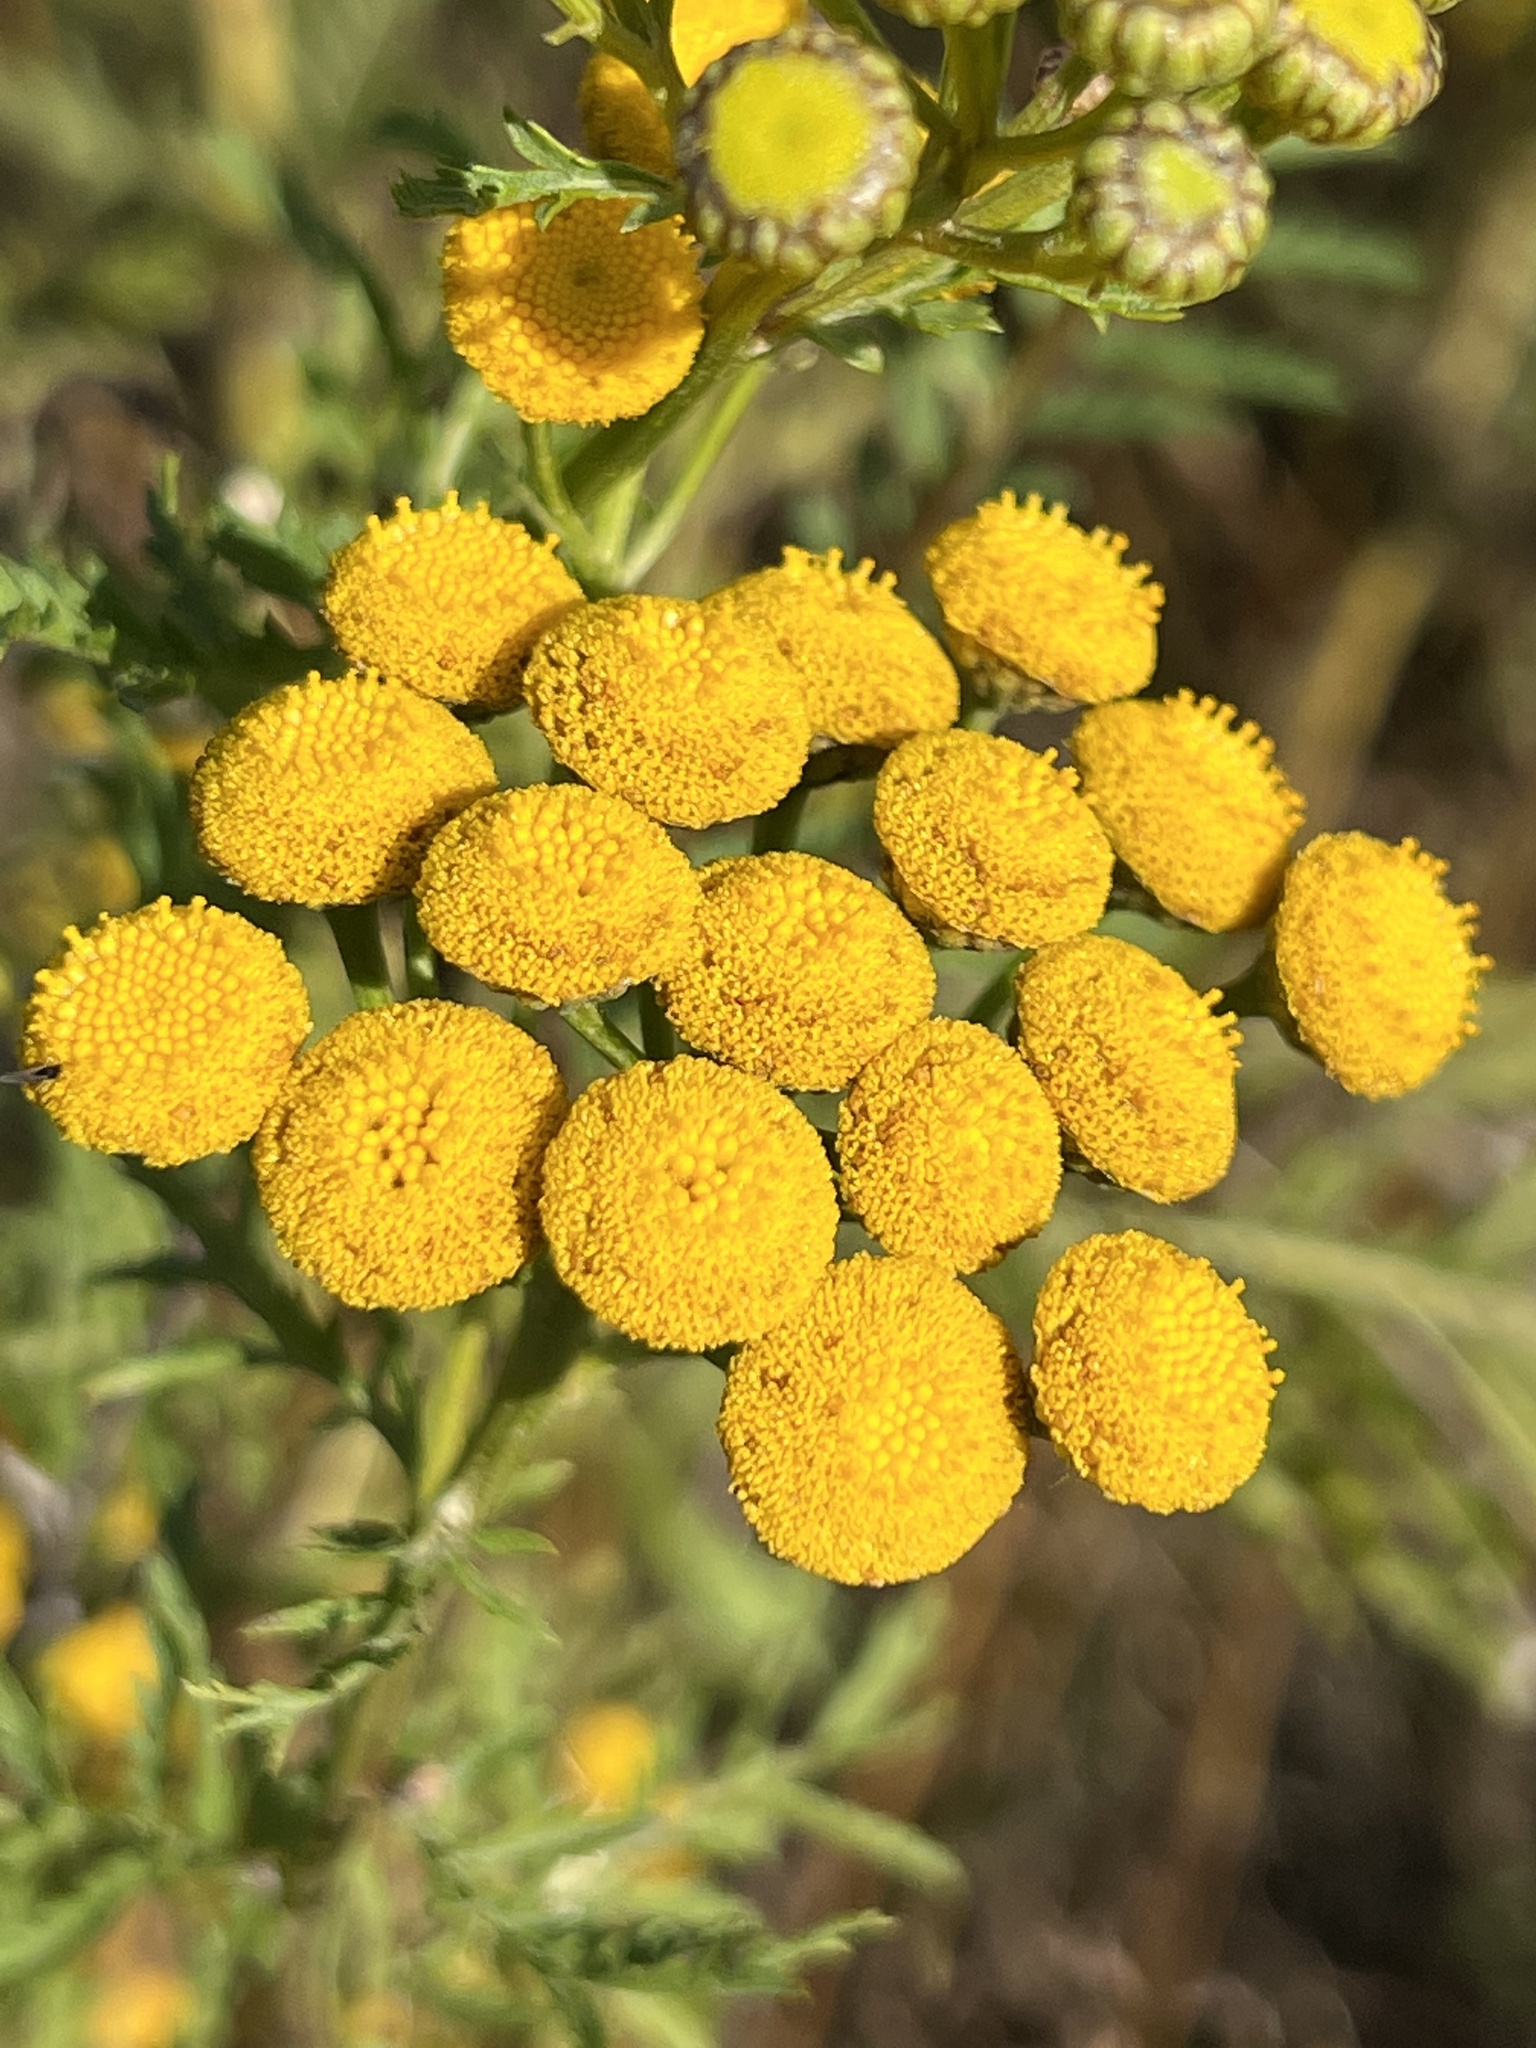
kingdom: Plantae
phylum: Tracheophyta
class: Magnoliopsida
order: Asterales
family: Asteraceae
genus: Tanacetum
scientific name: Tanacetum vulgare
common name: Common tansy
